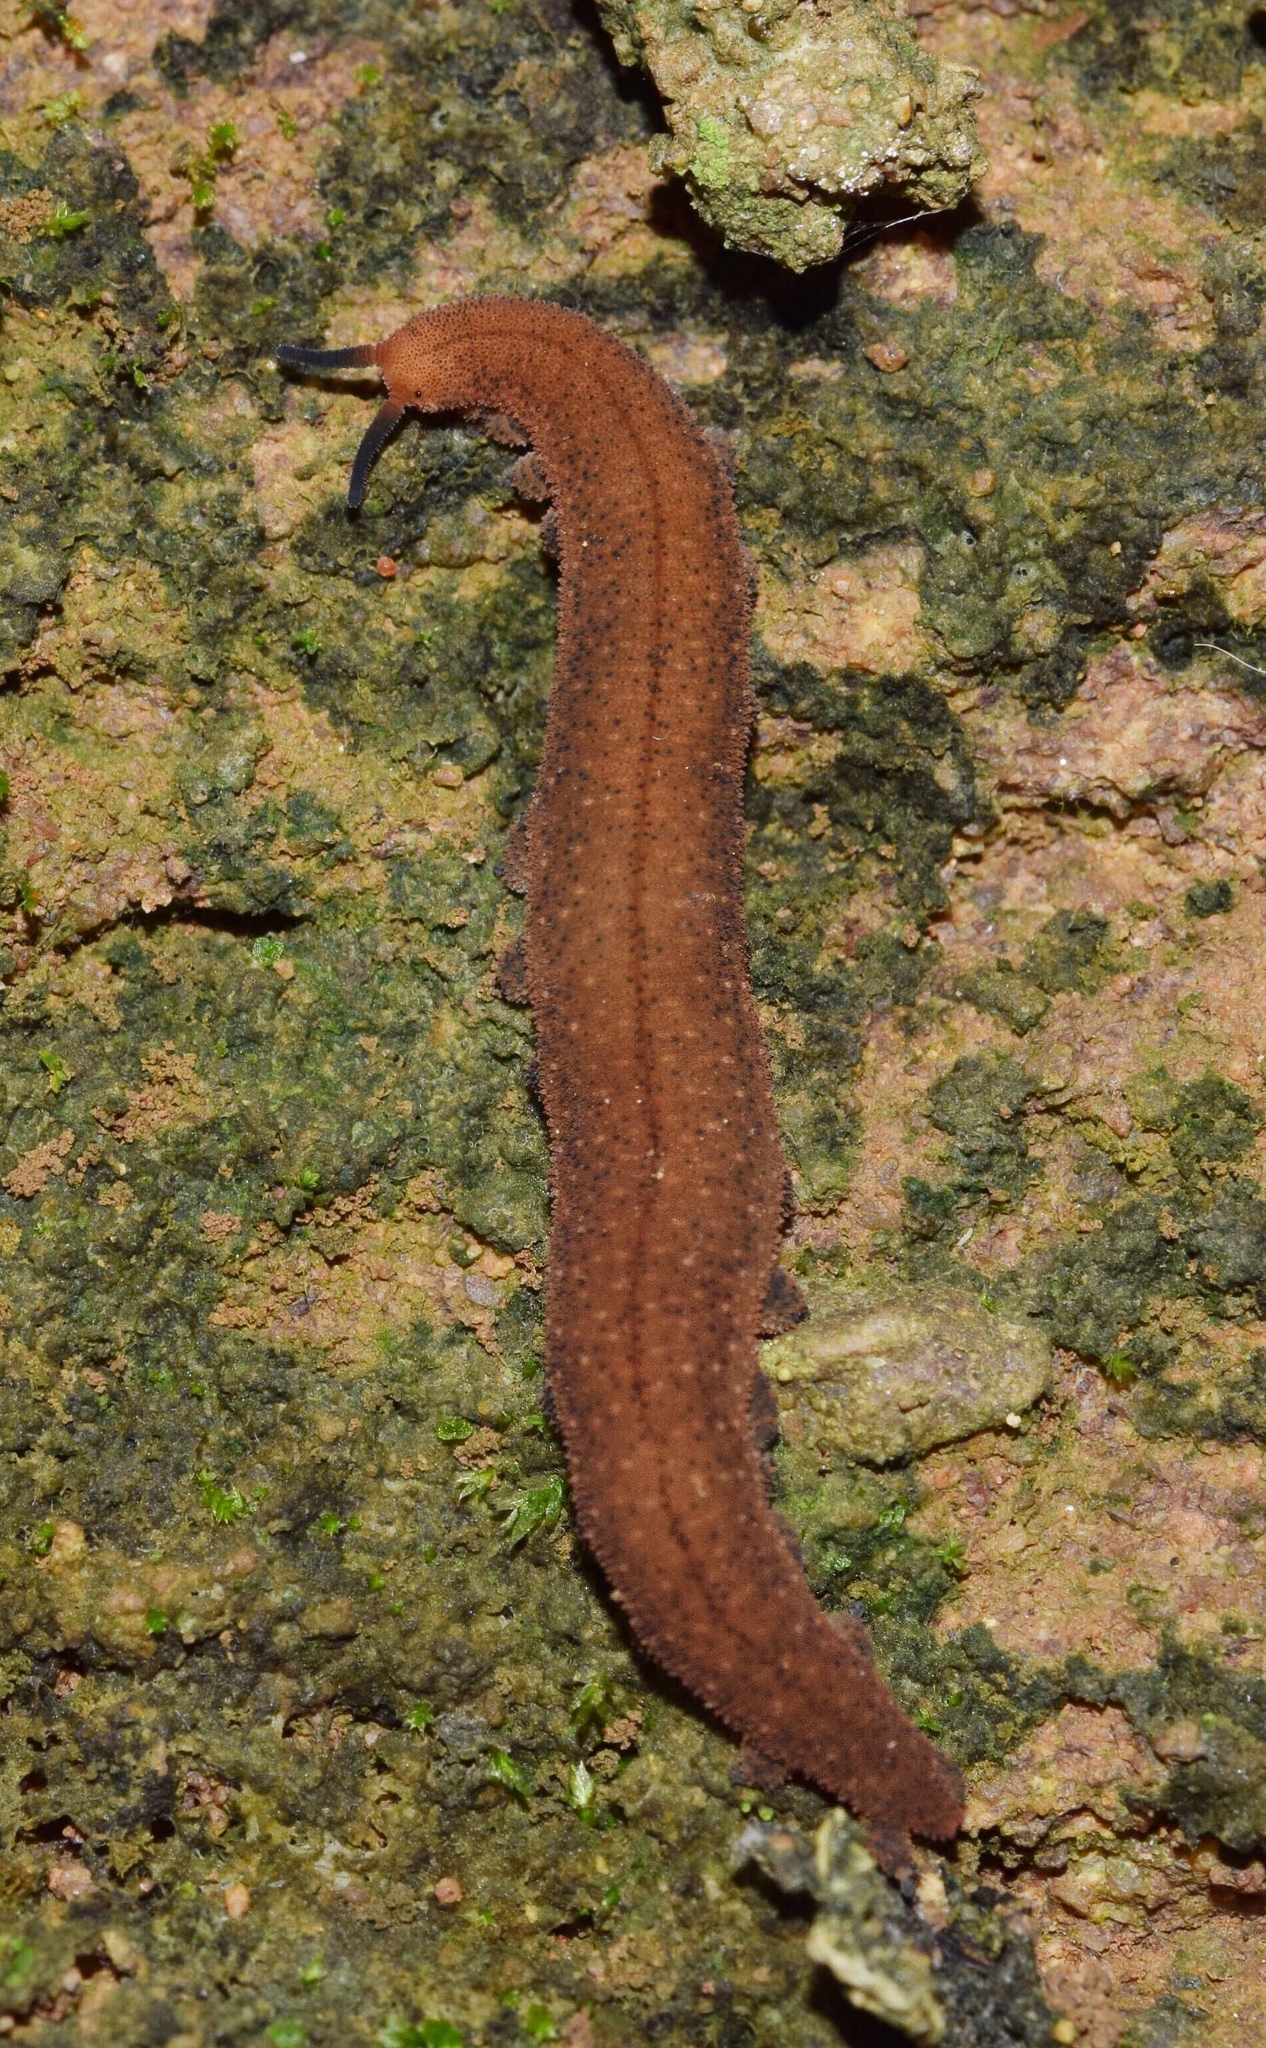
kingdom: Animalia
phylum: Onychophora
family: Peripatopsidae
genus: Opisthopatus
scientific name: Opisthopatus kwazululandi
